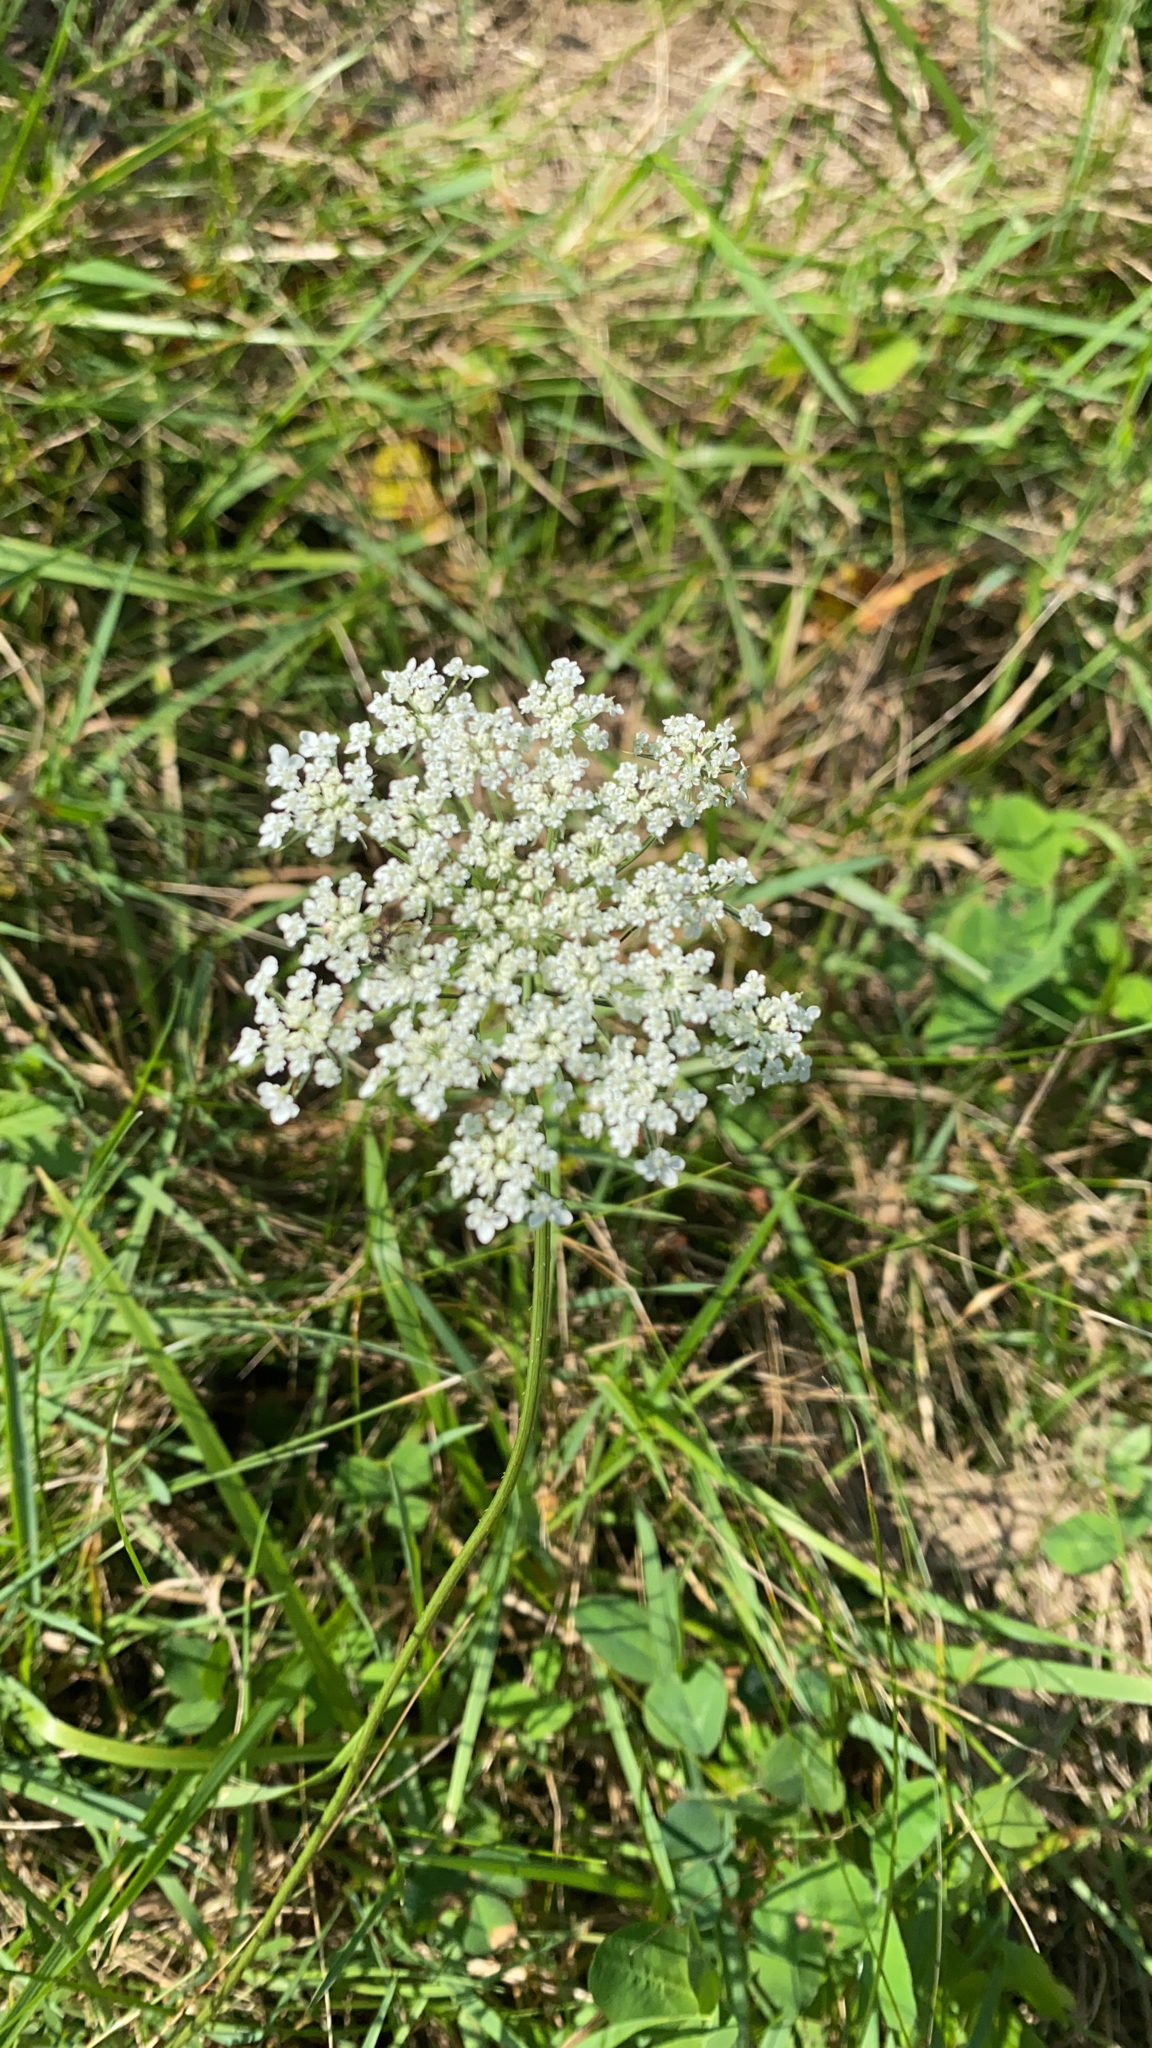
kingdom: Plantae
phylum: Tracheophyta
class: Magnoliopsida
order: Apiales
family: Apiaceae
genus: Daucus
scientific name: Daucus carota
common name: Wild carrot
